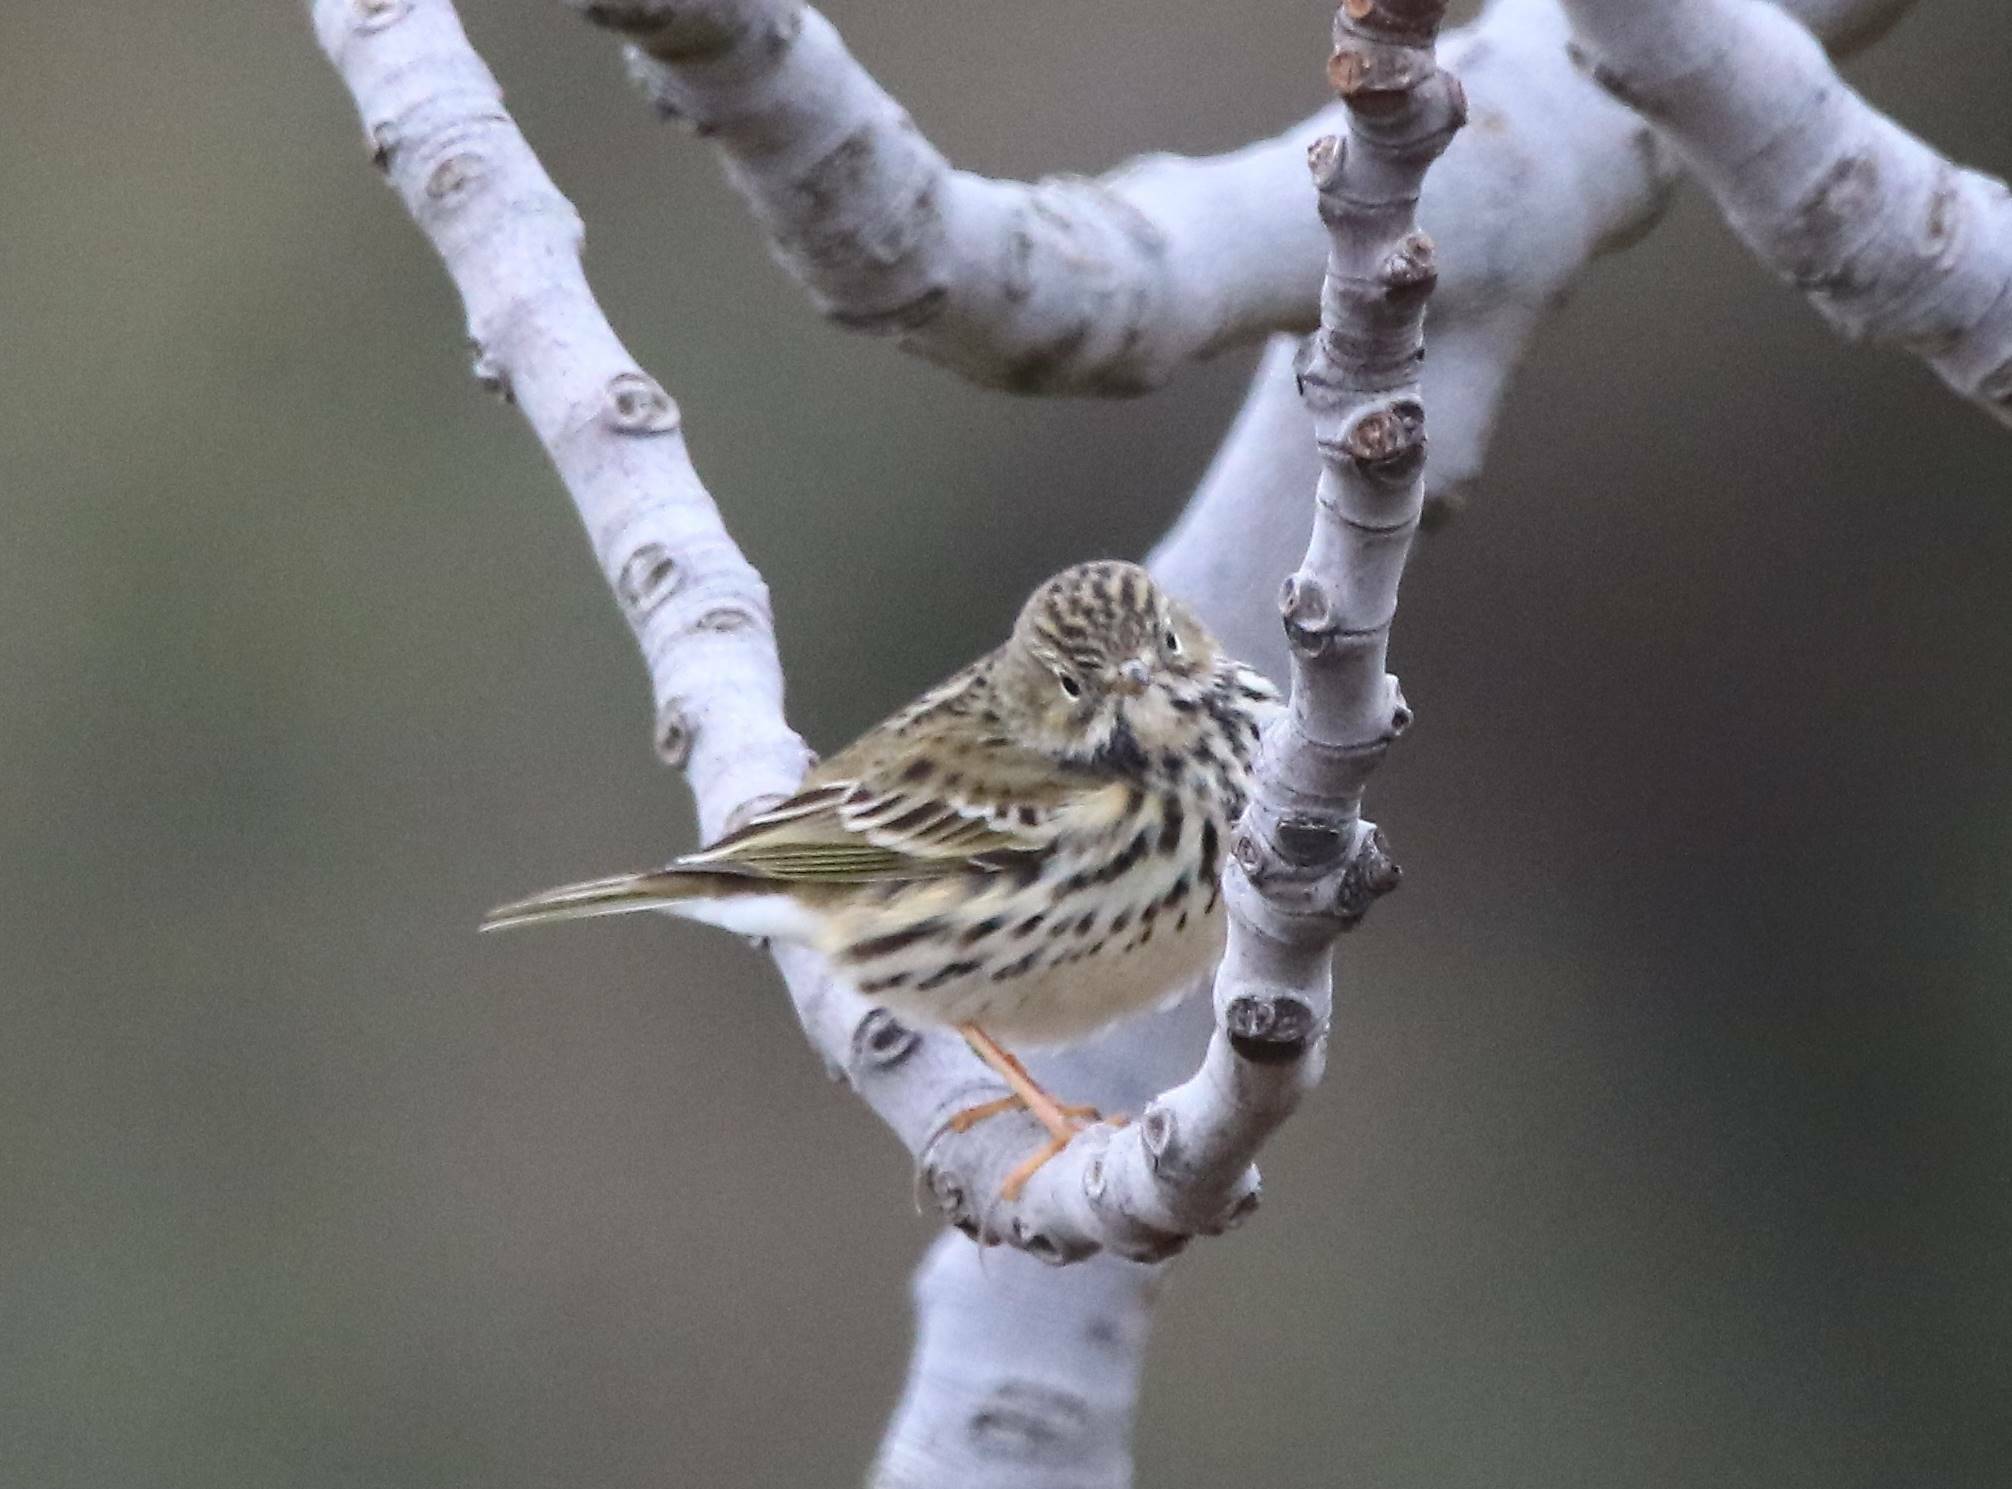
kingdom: Animalia
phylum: Chordata
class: Aves
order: Passeriformes
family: Motacillidae
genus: Anthus
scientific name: Anthus pratensis
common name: Meadow pipit
